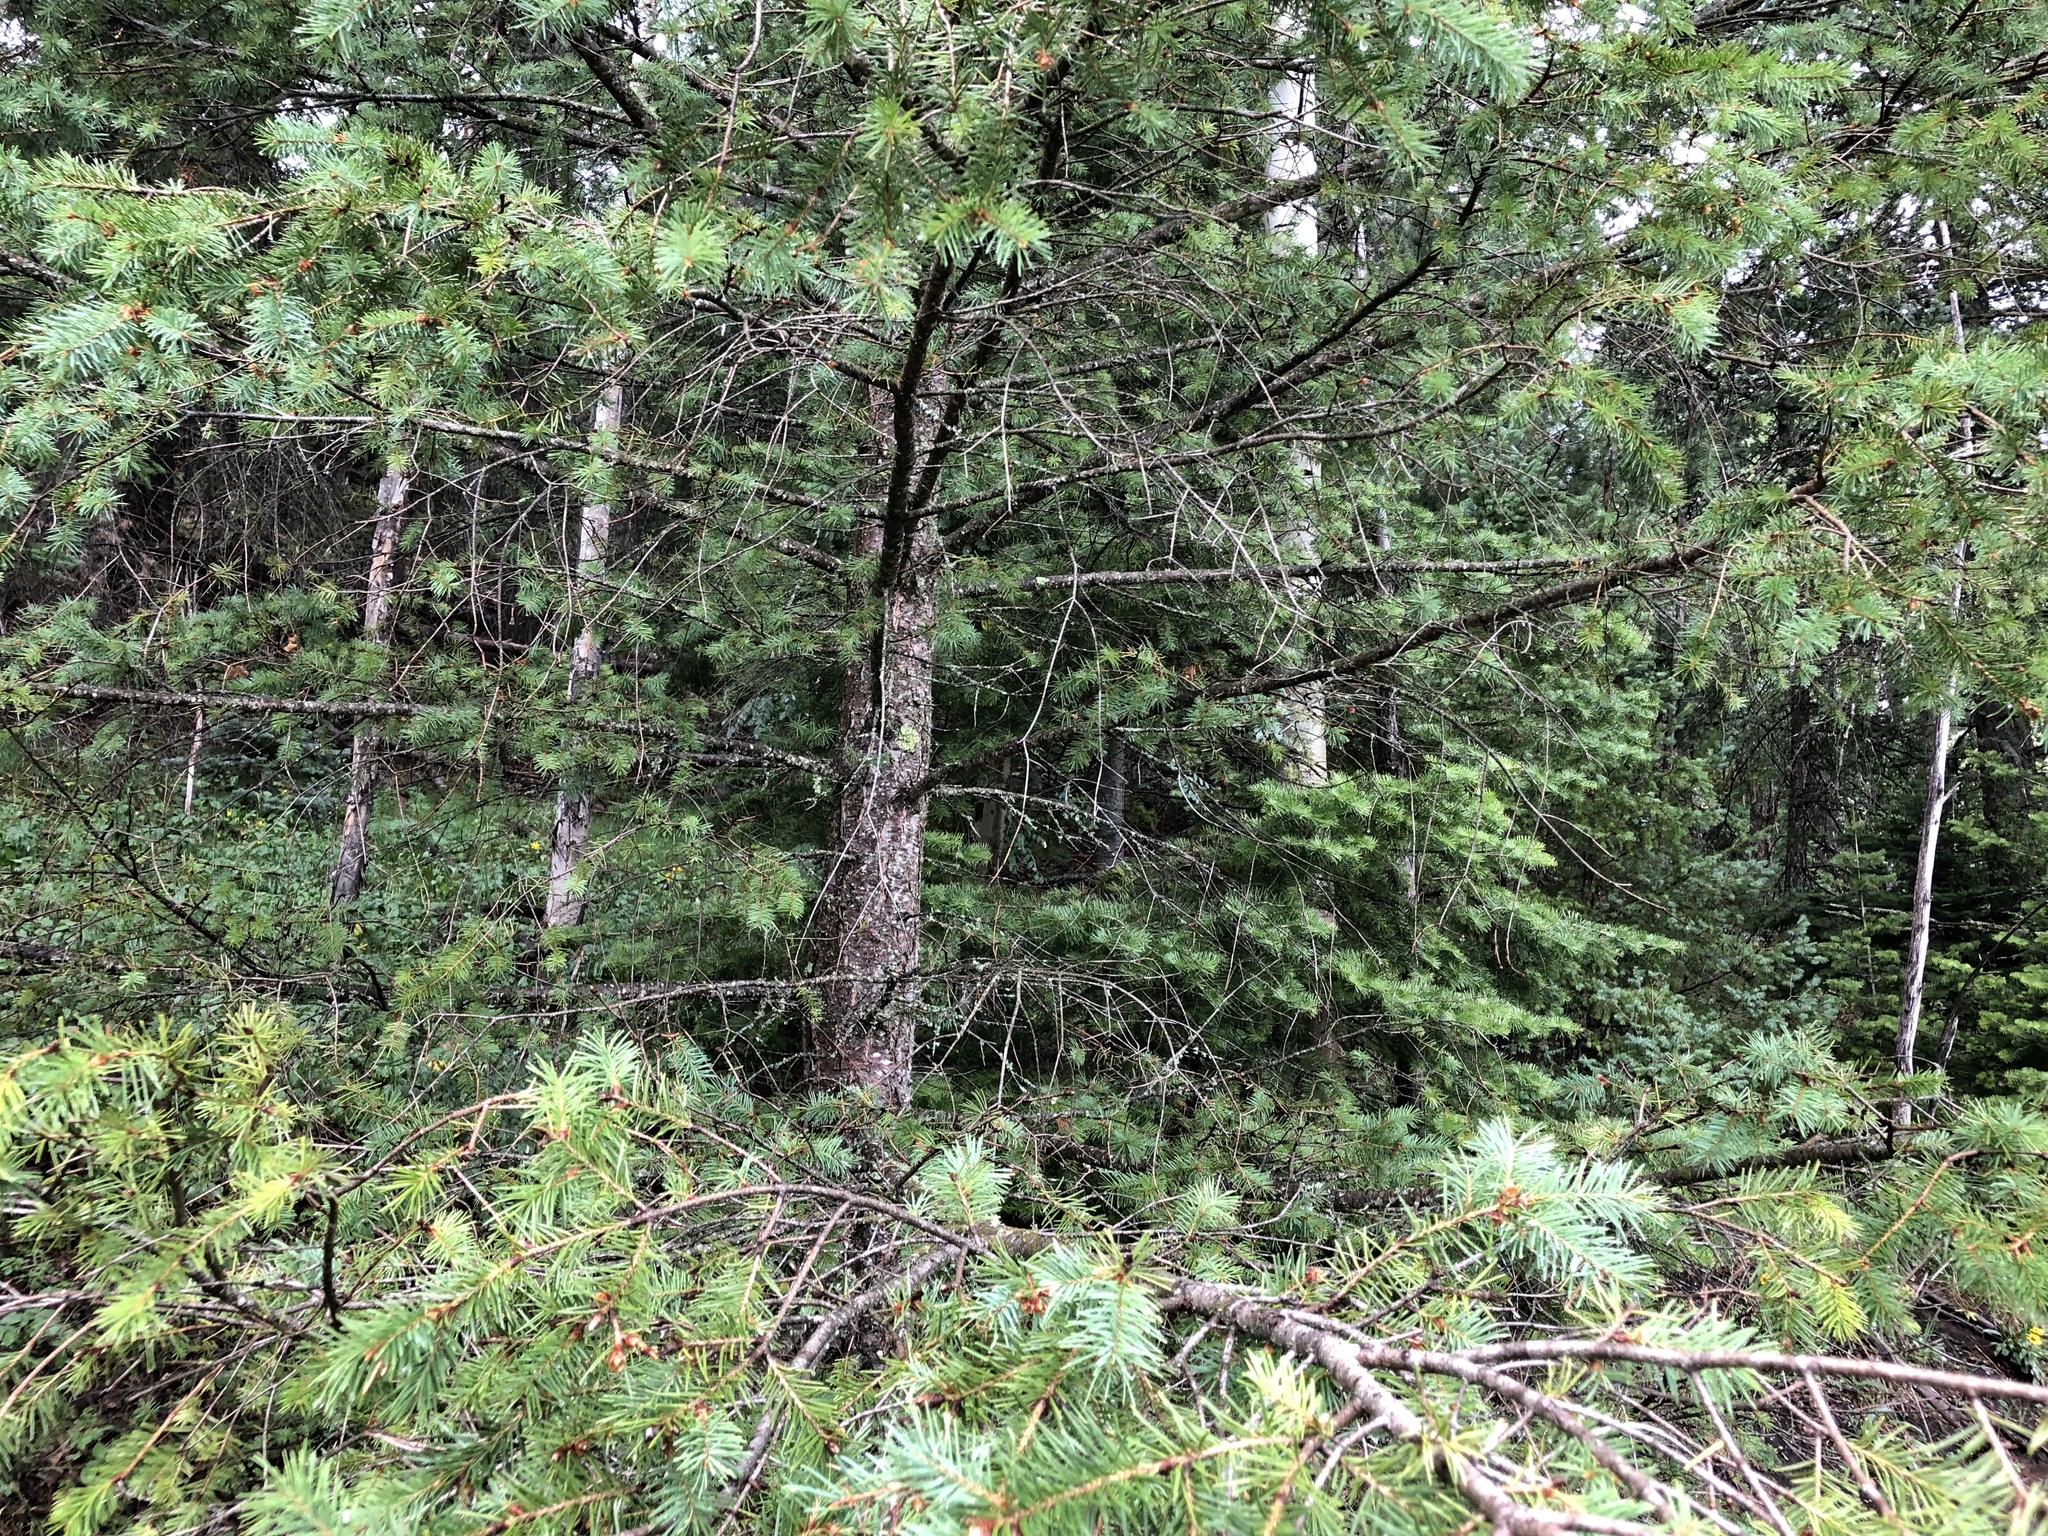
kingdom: Plantae
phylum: Tracheophyta
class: Pinopsida
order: Pinales
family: Pinaceae
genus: Pseudotsuga
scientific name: Pseudotsuga menziesii
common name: Douglas fir
